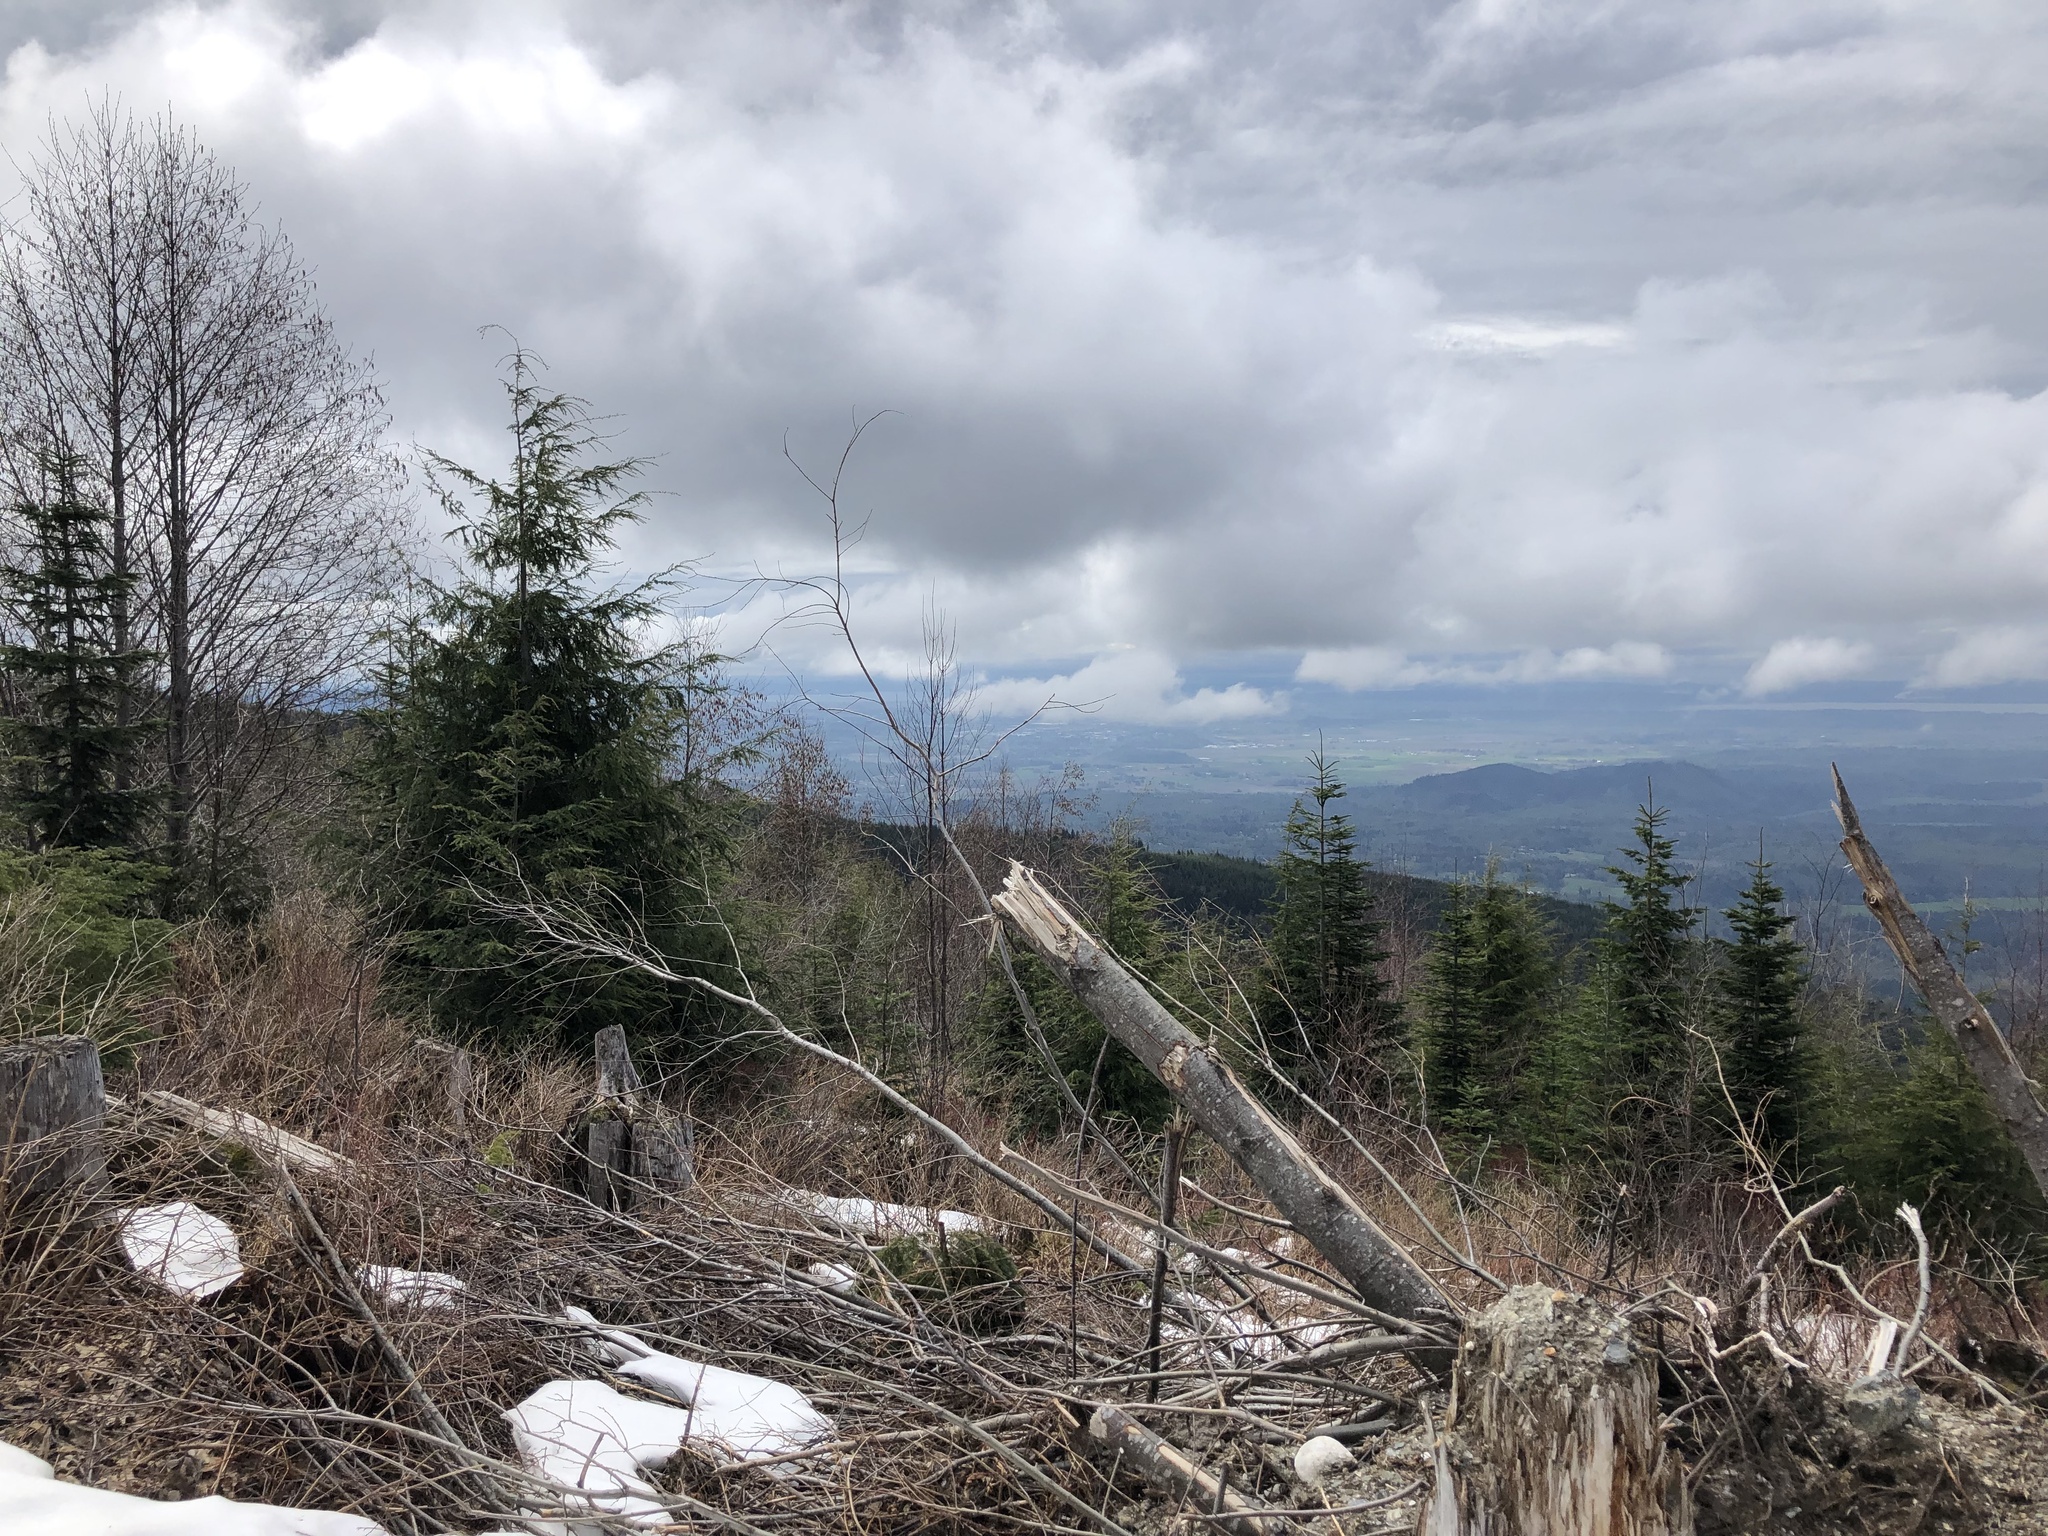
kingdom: Plantae
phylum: Tracheophyta
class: Pinopsida
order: Pinales
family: Pinaceae
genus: Tsuga
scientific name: Tsuga heterophylla
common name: Western hemlock
